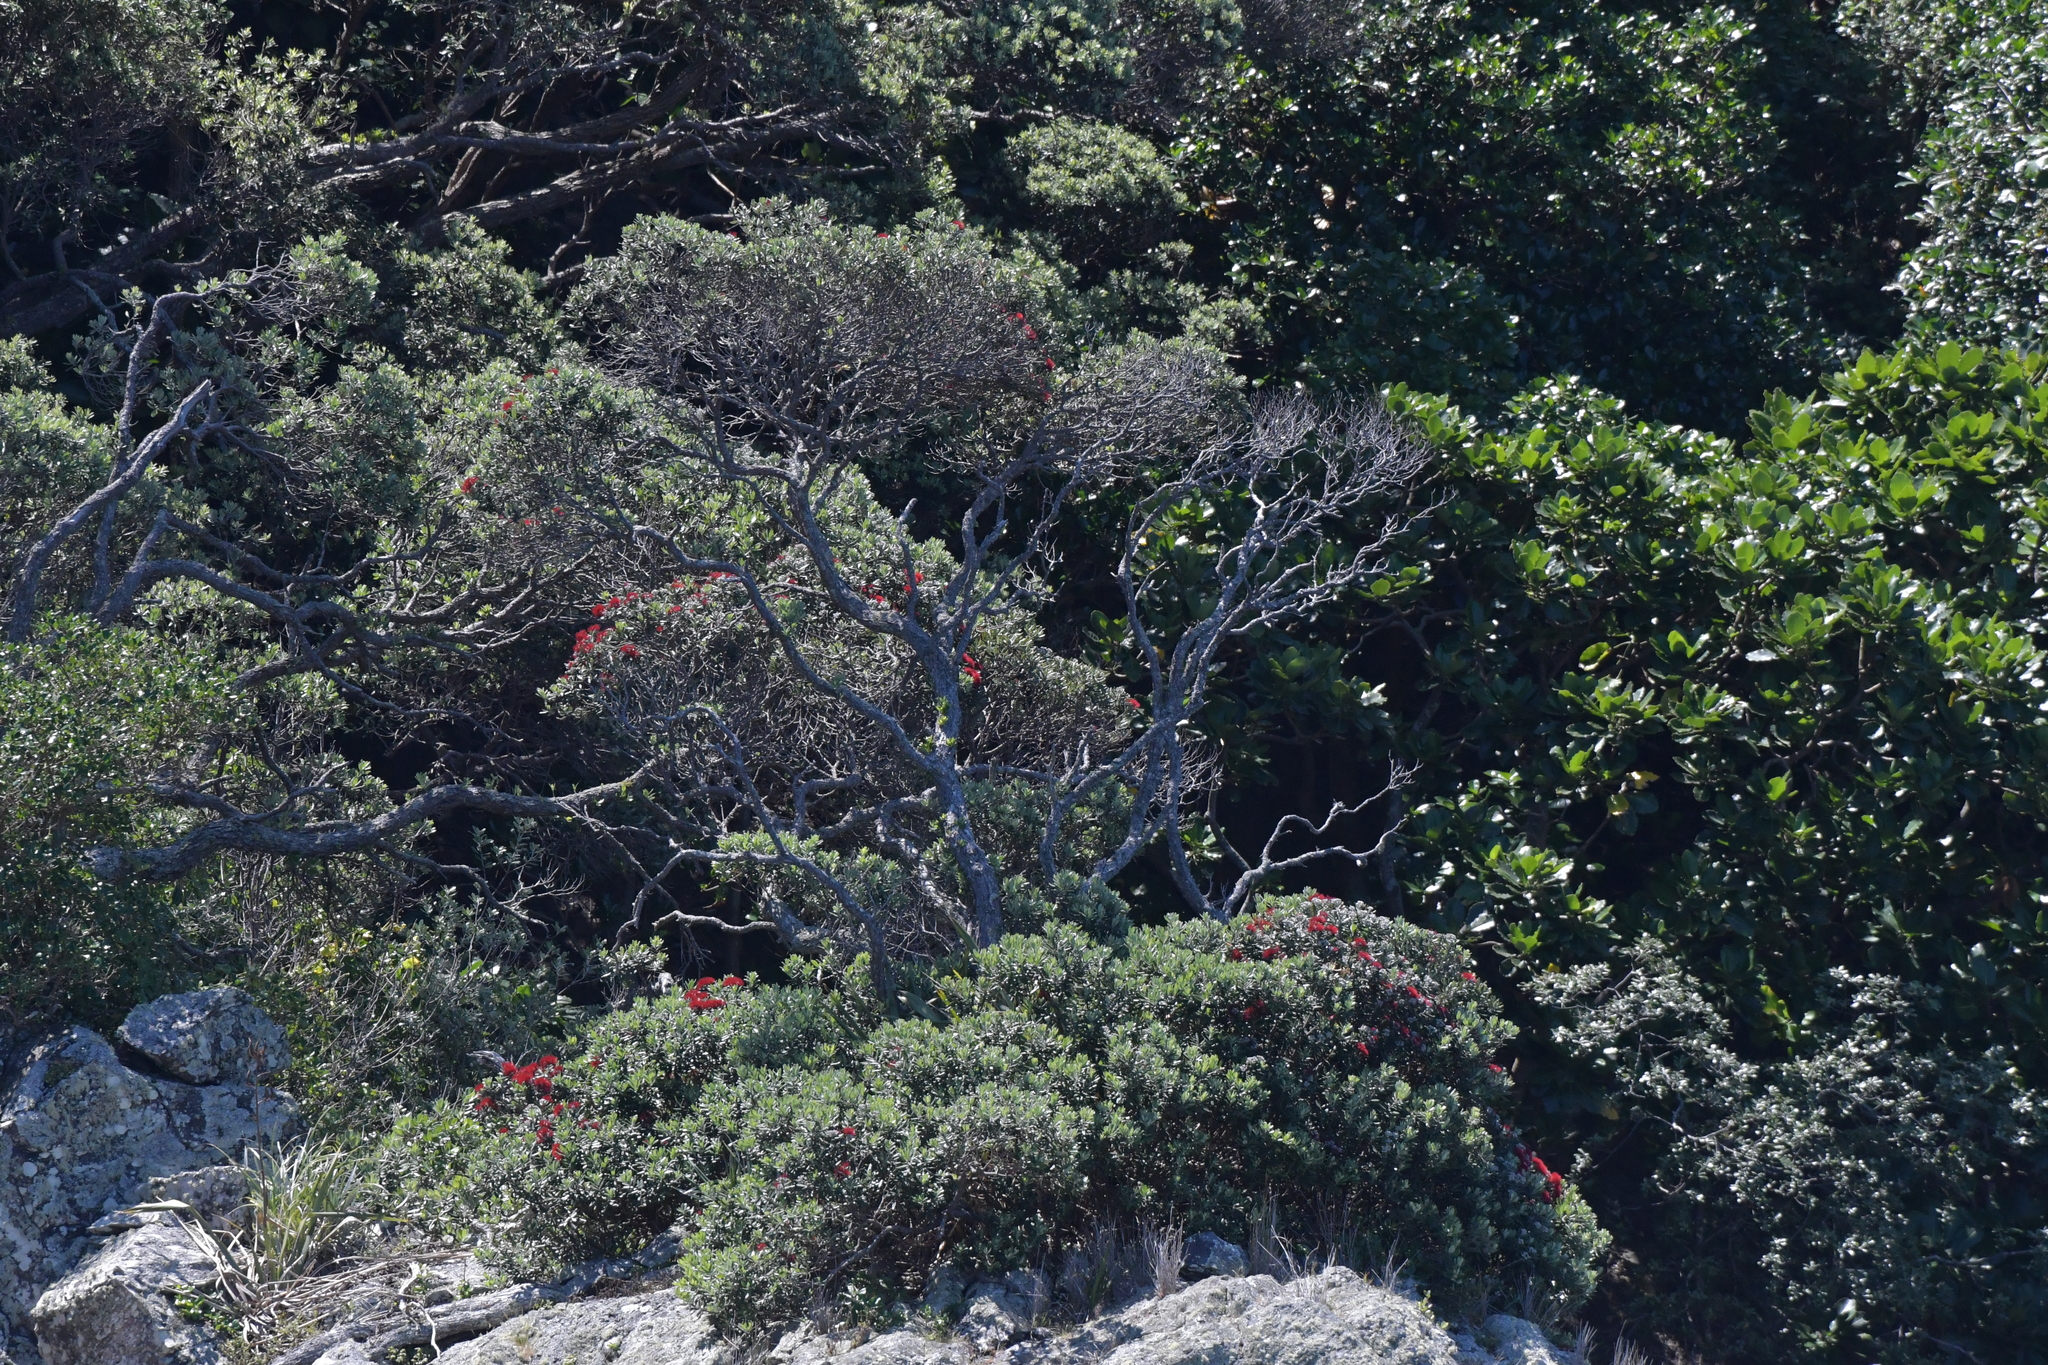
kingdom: Plantae
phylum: Tracheophyta
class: Magnoliopsida
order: Myrtales
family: Myrtaceae
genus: Metrosideros
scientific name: Metrosideros excelsa
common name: New zealand christmastree
